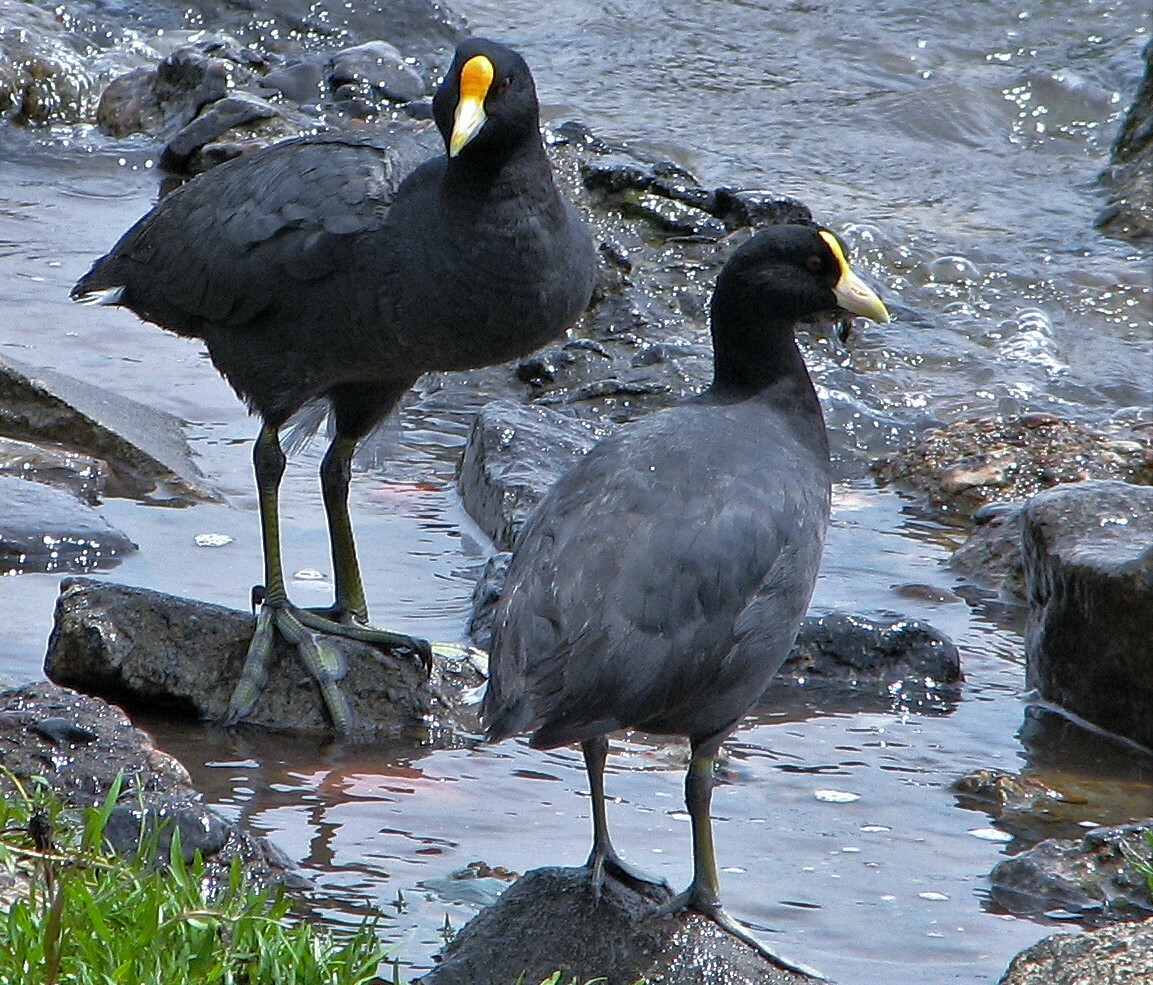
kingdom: Animalia
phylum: Chordata
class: Aves
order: Gruiformes
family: Rallidae
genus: Fulica
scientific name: Fulica leucoptera
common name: White-winged coot
